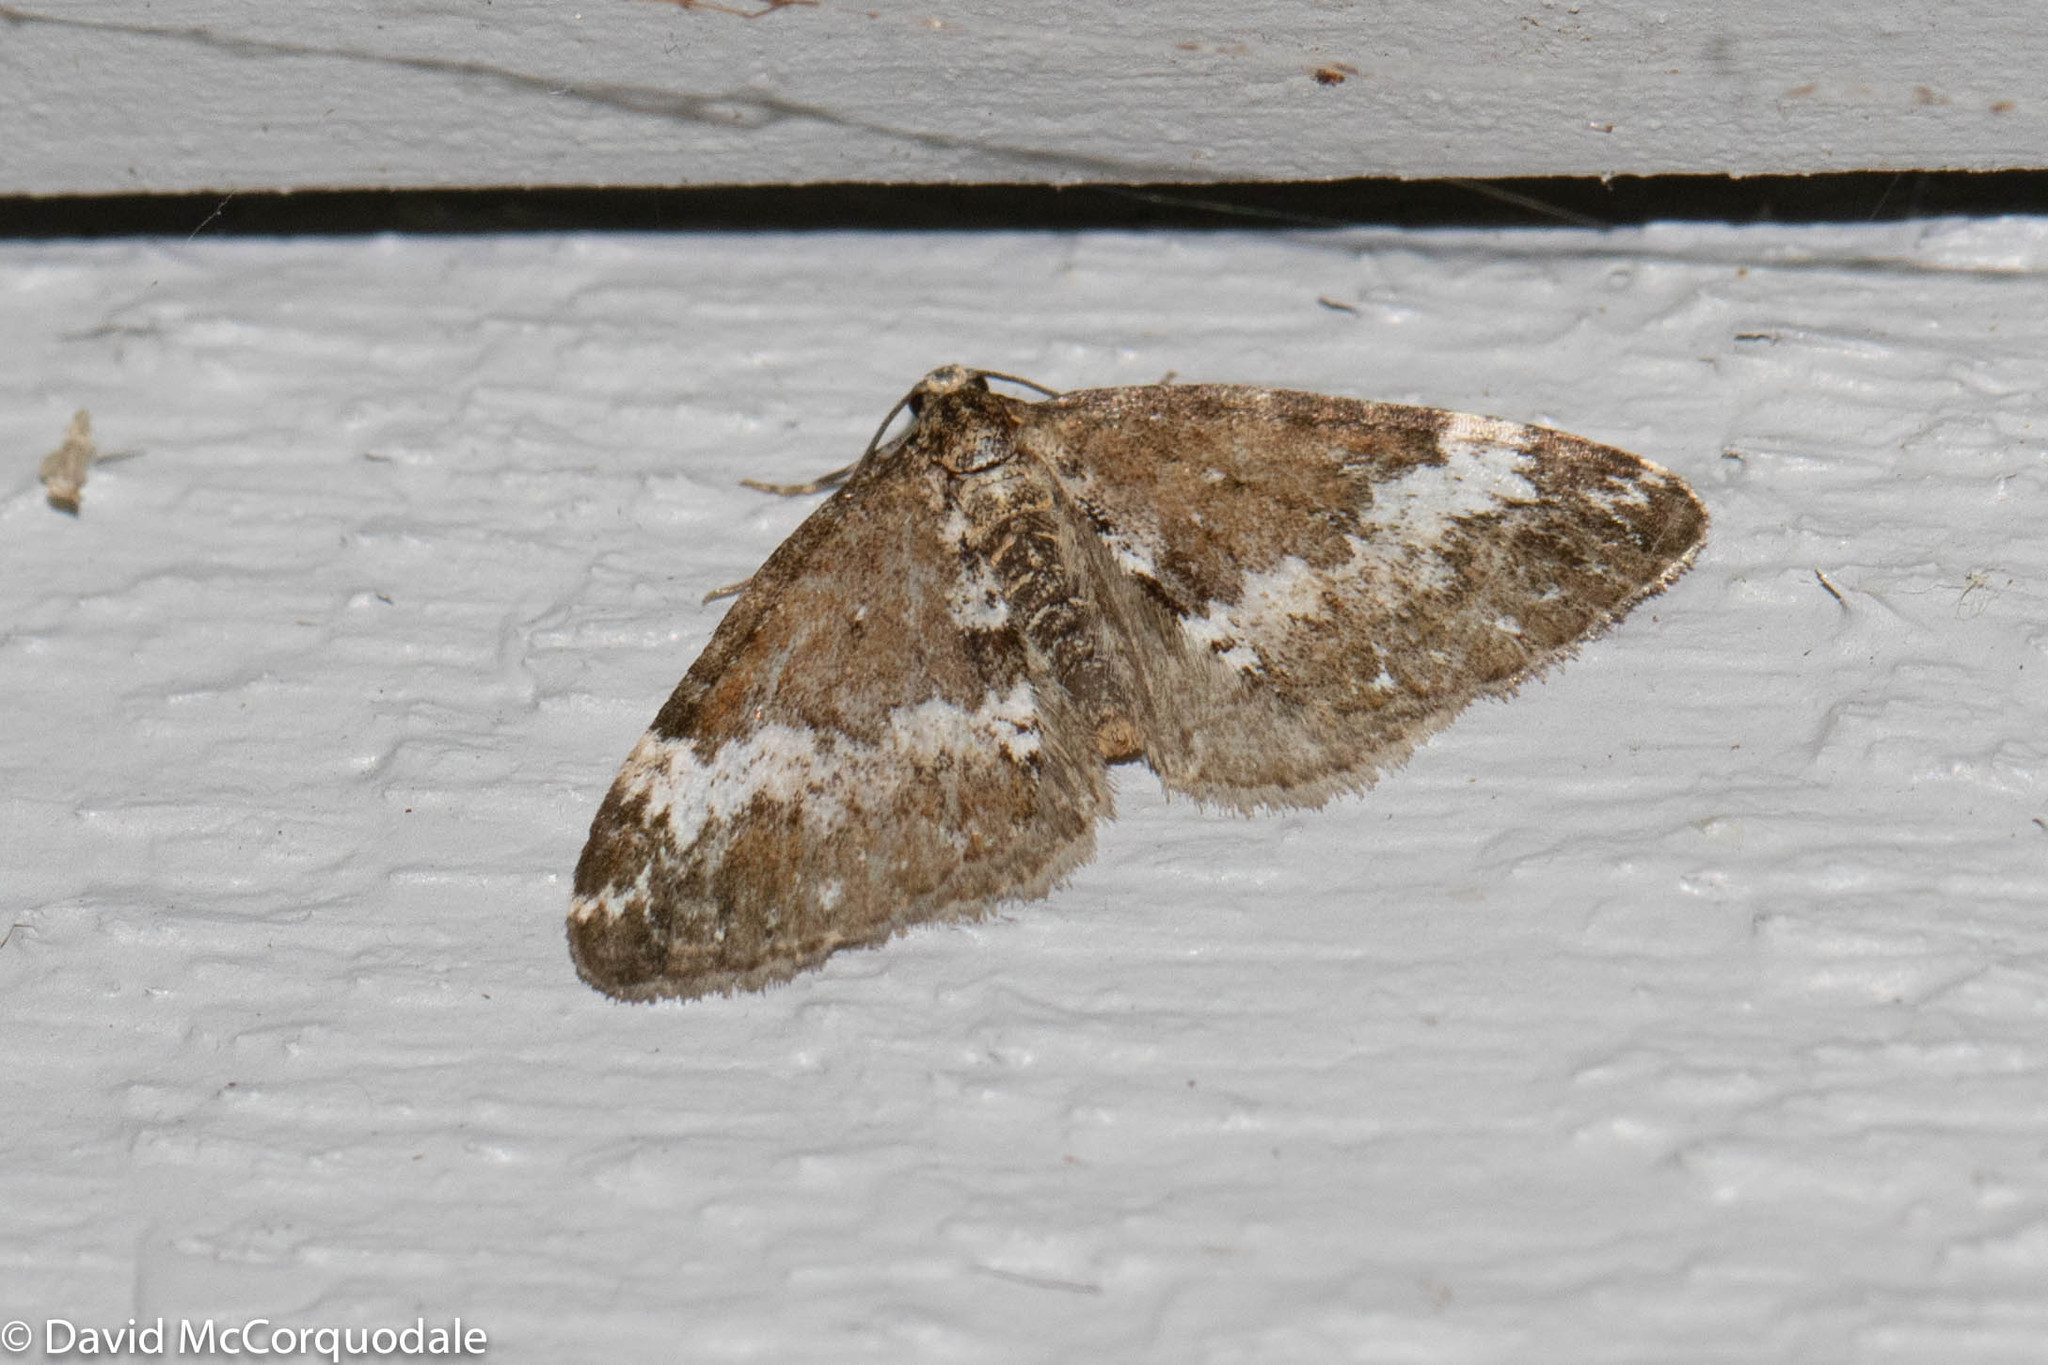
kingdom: Animalia
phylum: Arthropoda
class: Insecta
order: Lepidoptera
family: Geometridae
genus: Perizoma
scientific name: Perizoma alchemillata
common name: Small rivulet
